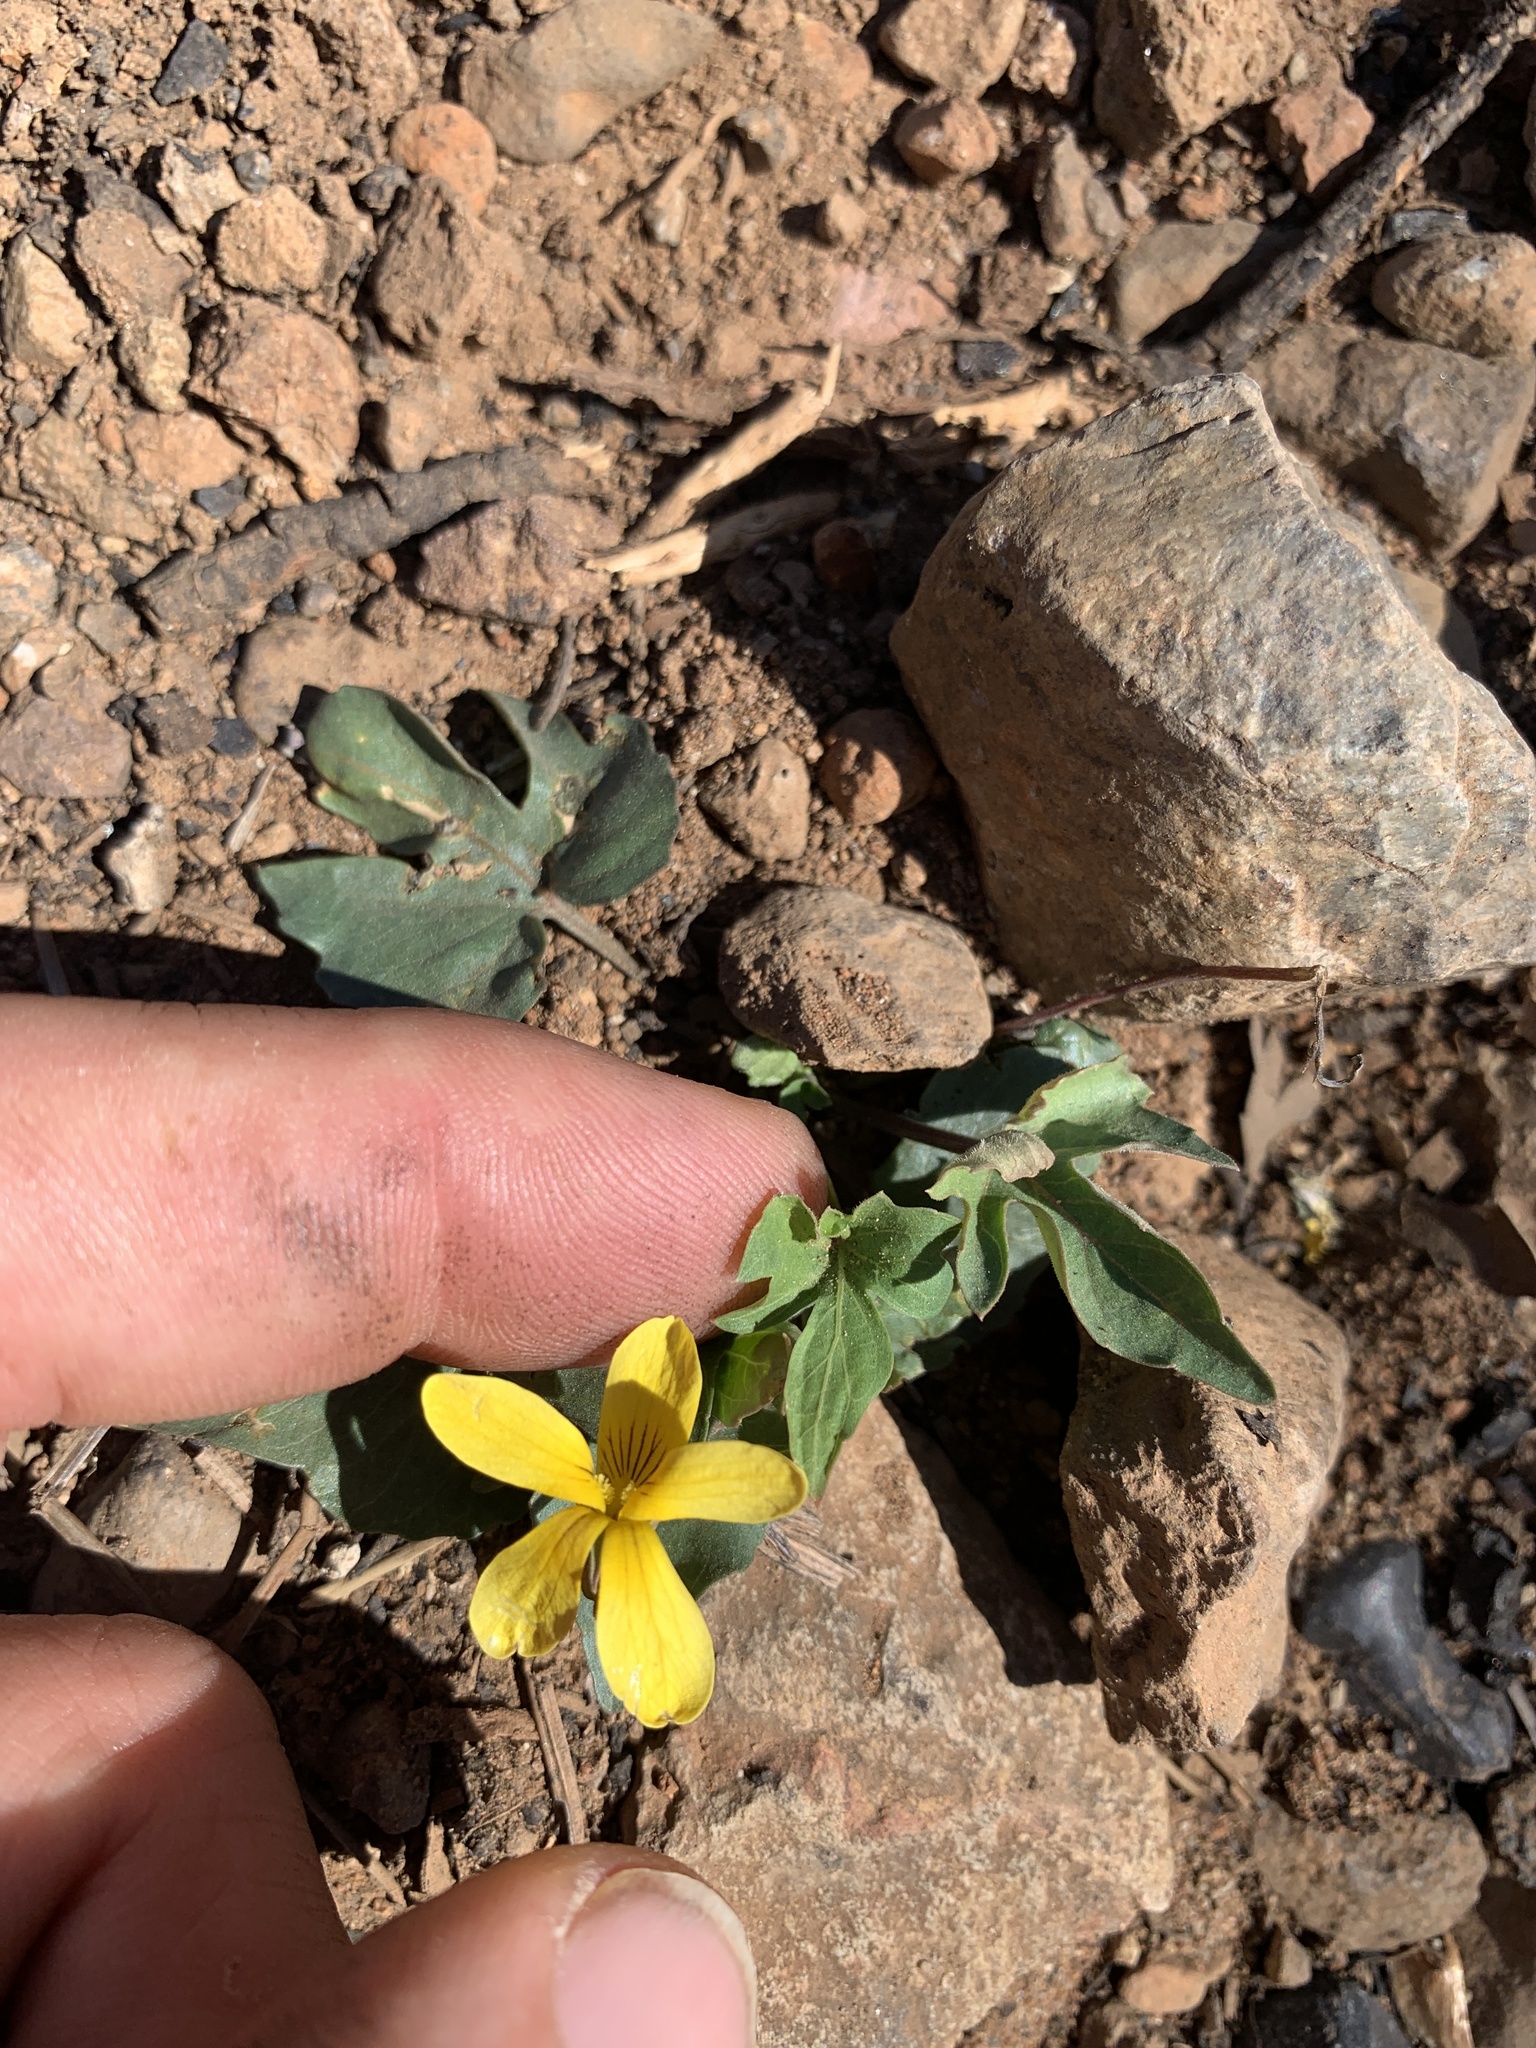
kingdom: Plantae
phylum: Tracheophyta
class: Magnoliopsida
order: Malpighiales
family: Violaceae
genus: Viola
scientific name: Viola lobata
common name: Pine violet
